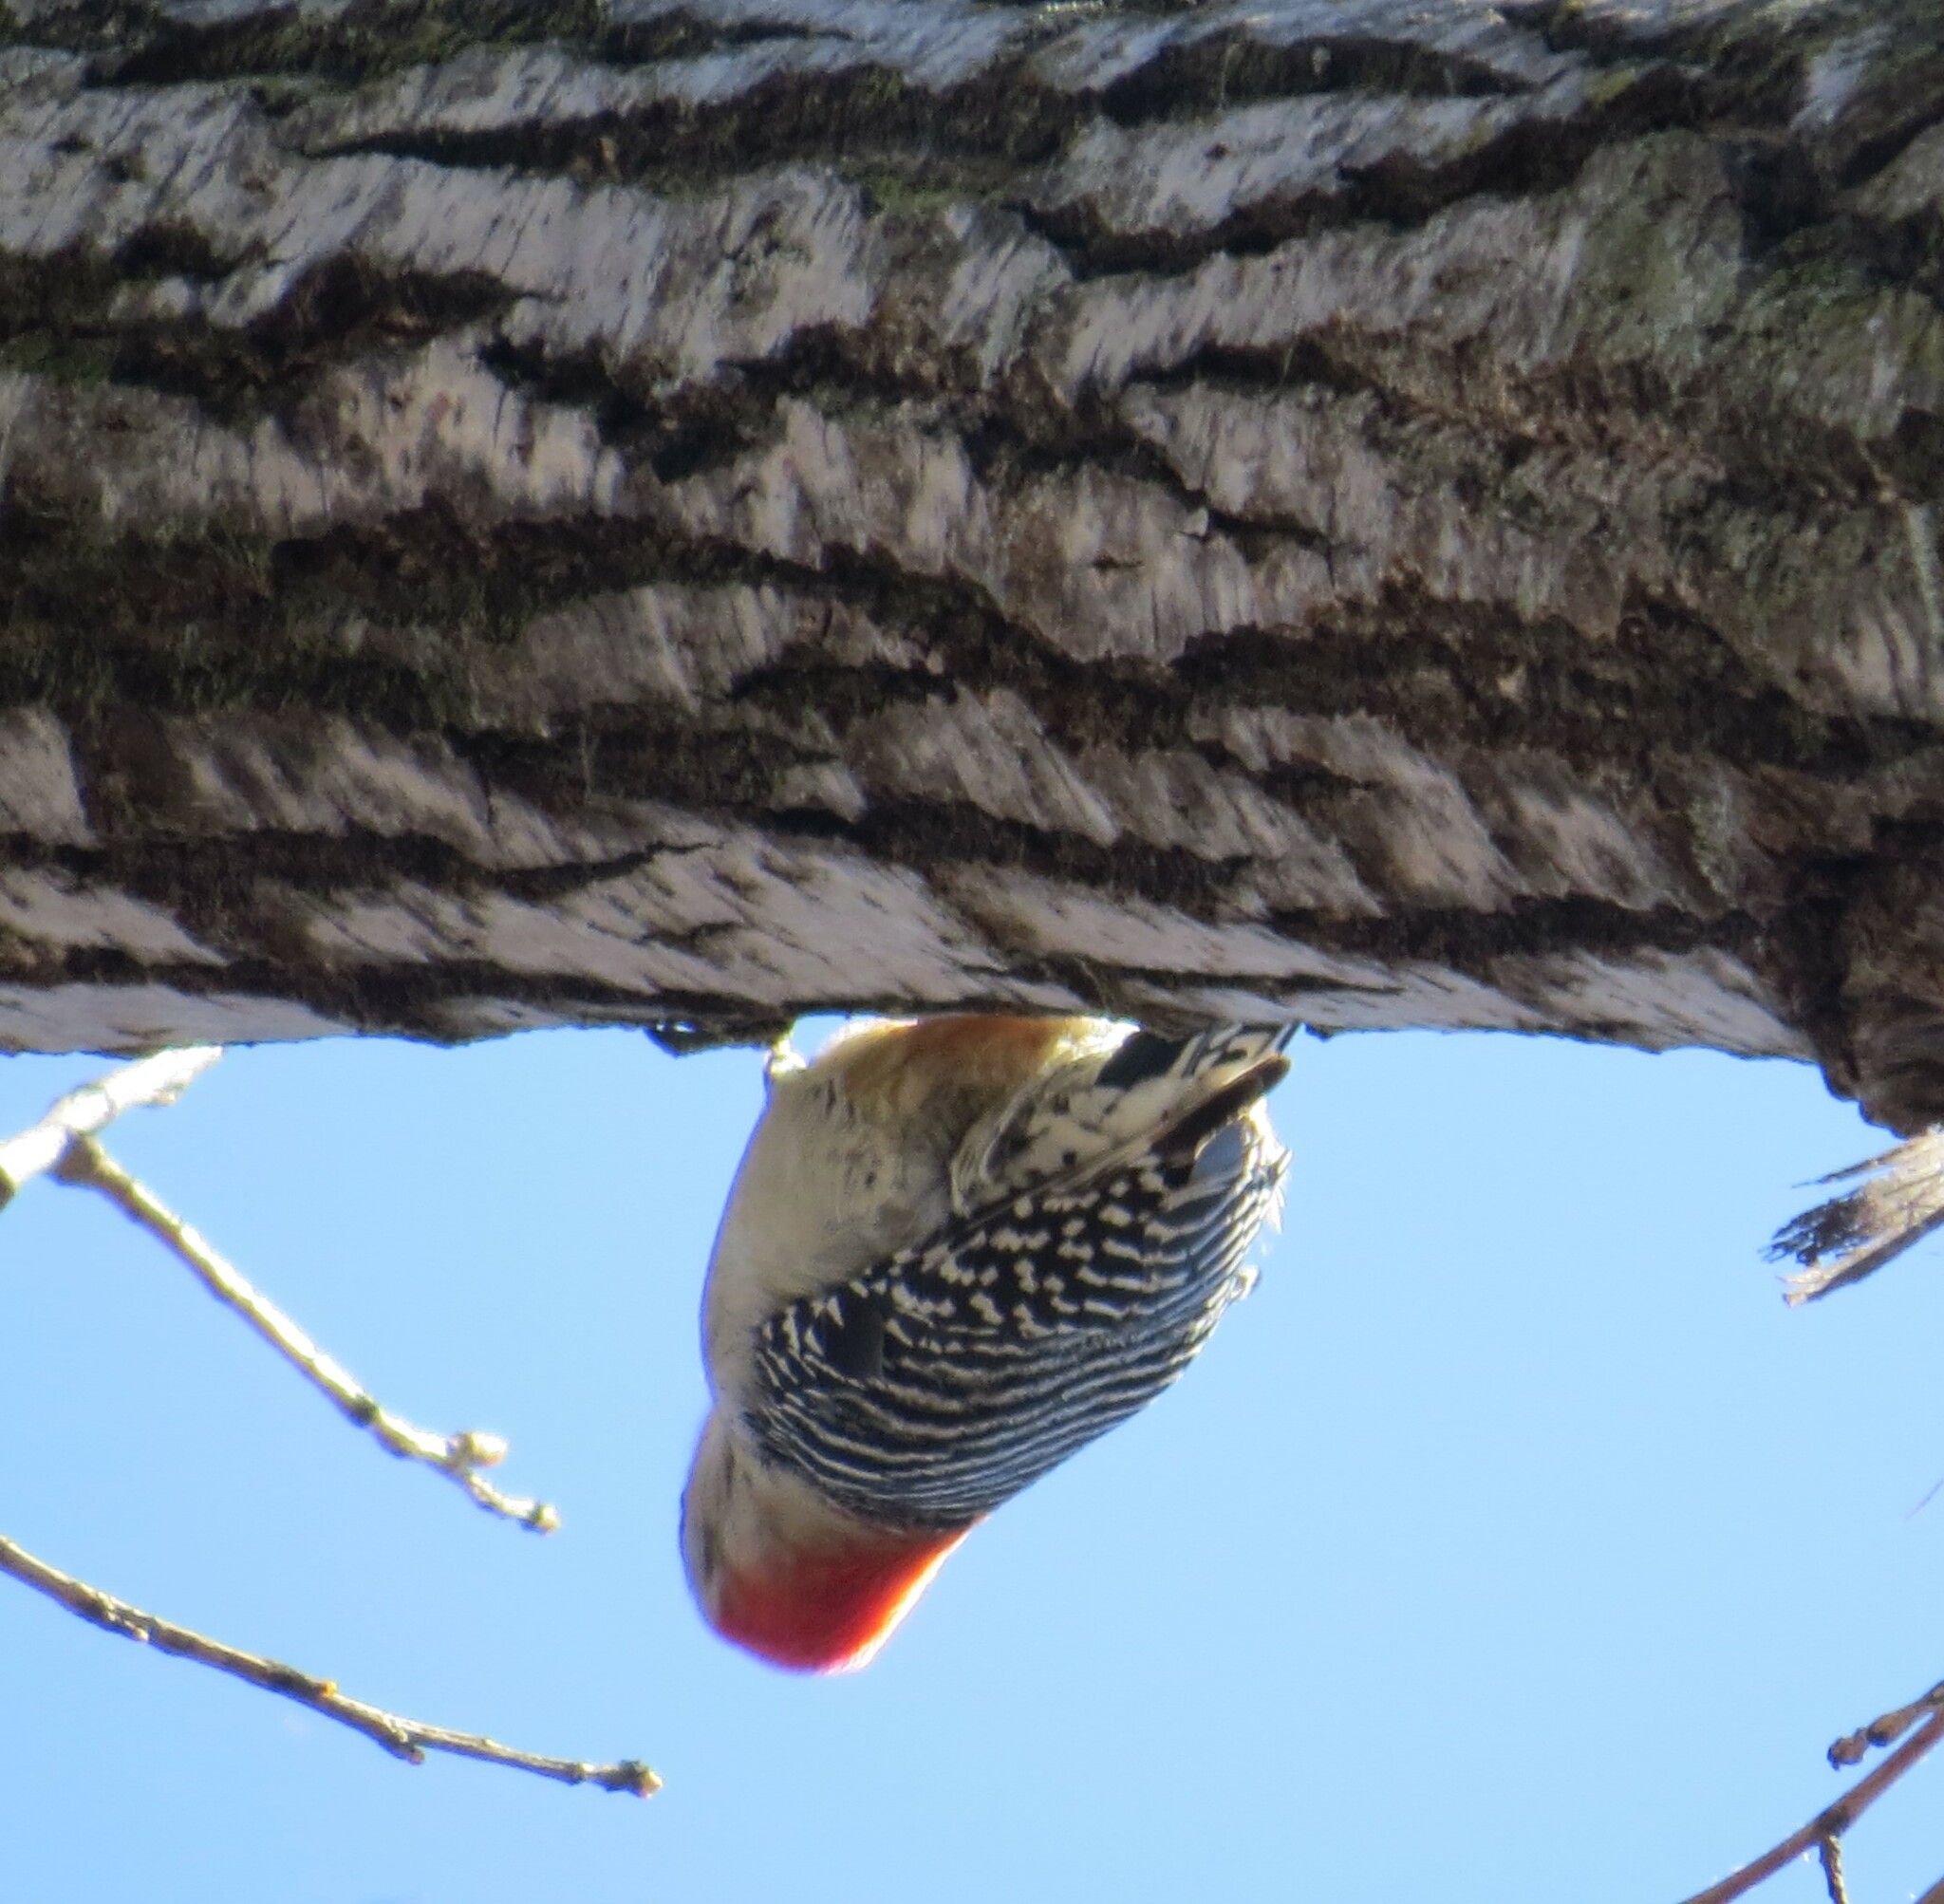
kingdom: Animalia
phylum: Chordata
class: Aves
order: Piciformes
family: Picidae
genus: Melanerpes
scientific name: Melanerpes carolinus
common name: Red-bellied woodpecker
